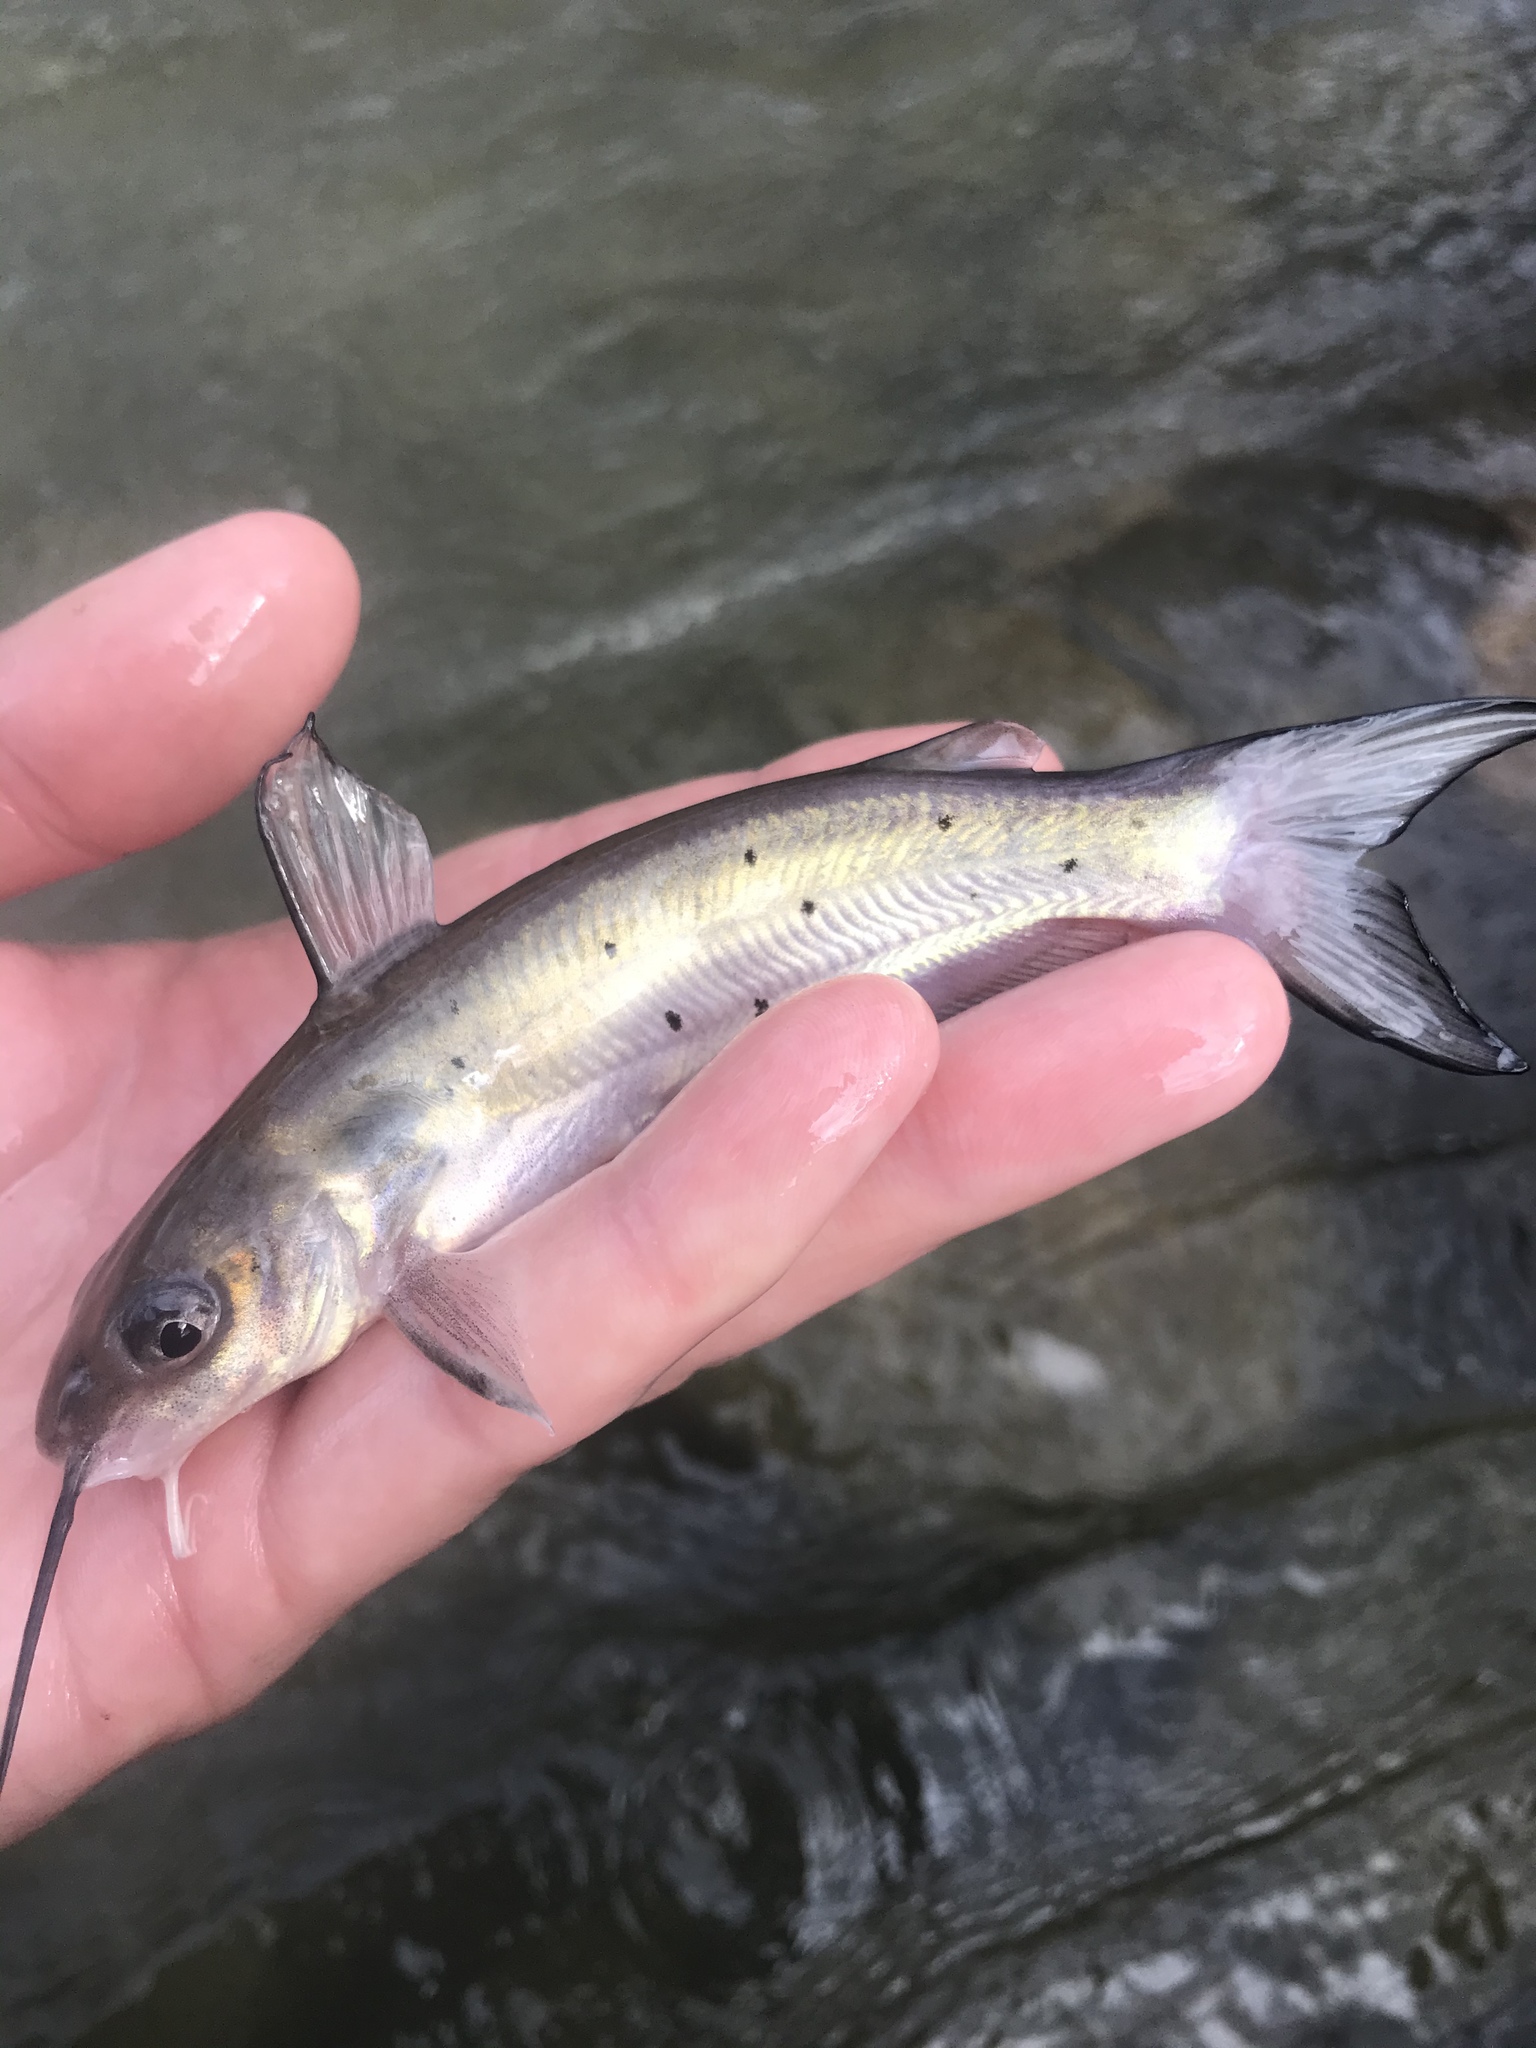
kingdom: Animalia
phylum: Chordata
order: Siluriformes
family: Ictaluridae
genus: Ictalurus
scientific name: Ictalurus punctatus
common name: Channel catfish
